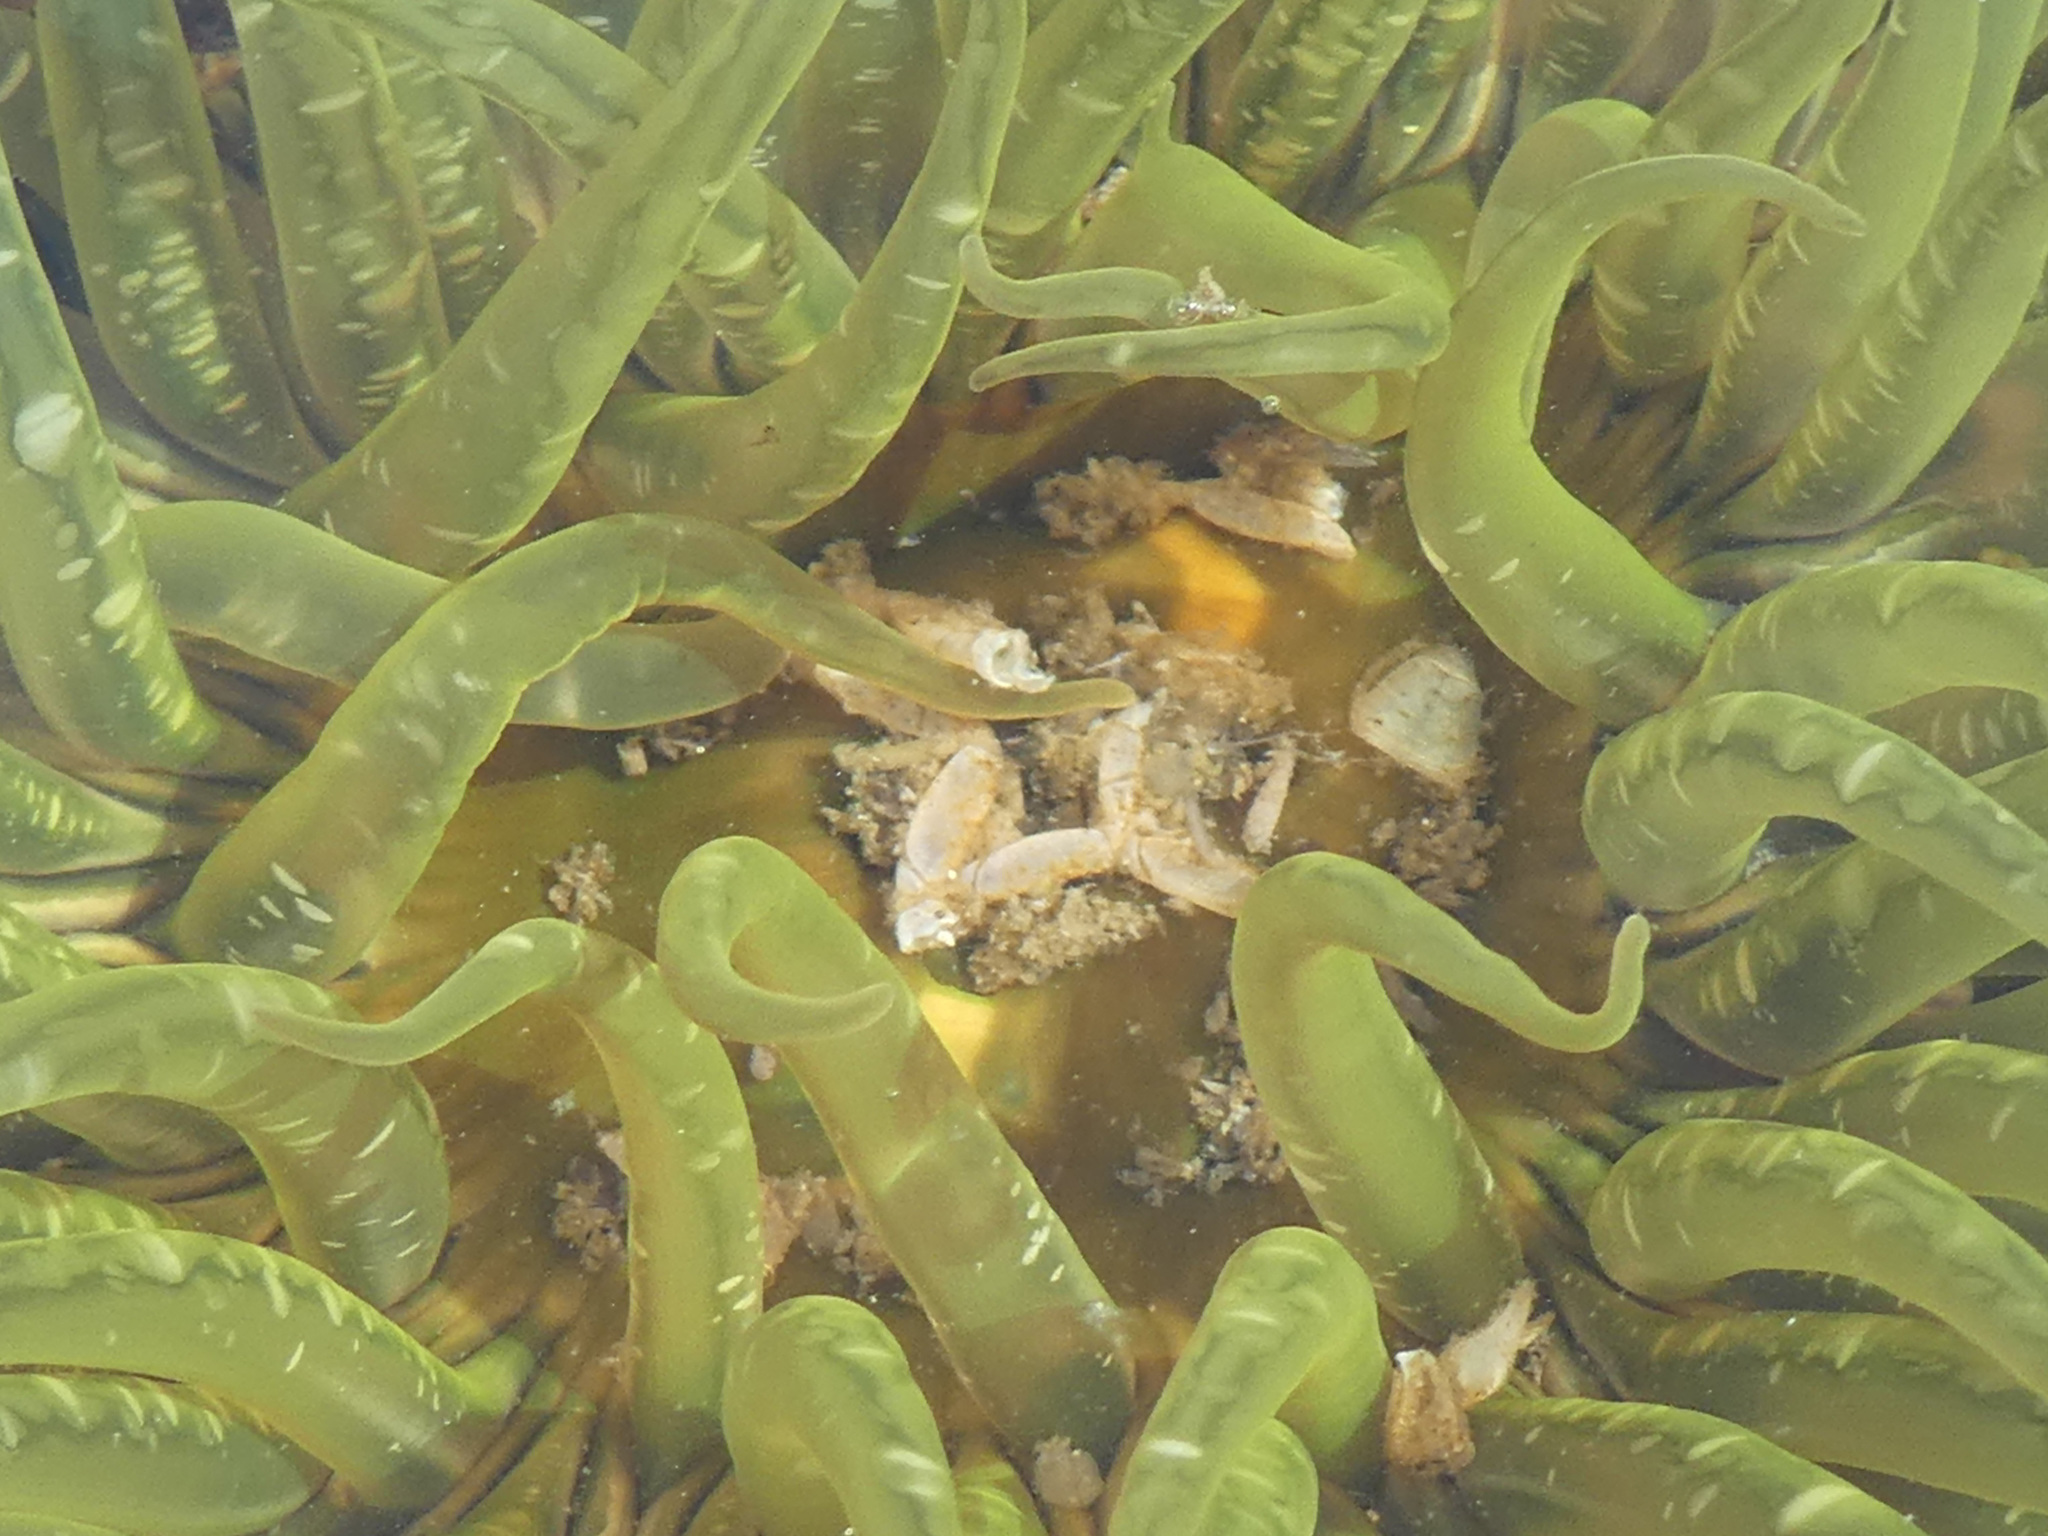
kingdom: Animalia
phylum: Cnidaria
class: Anthozoa
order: Actiniaria
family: Actiniidae
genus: Anthopleura
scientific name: Anthopleura artemisia
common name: Buried sea anemone
